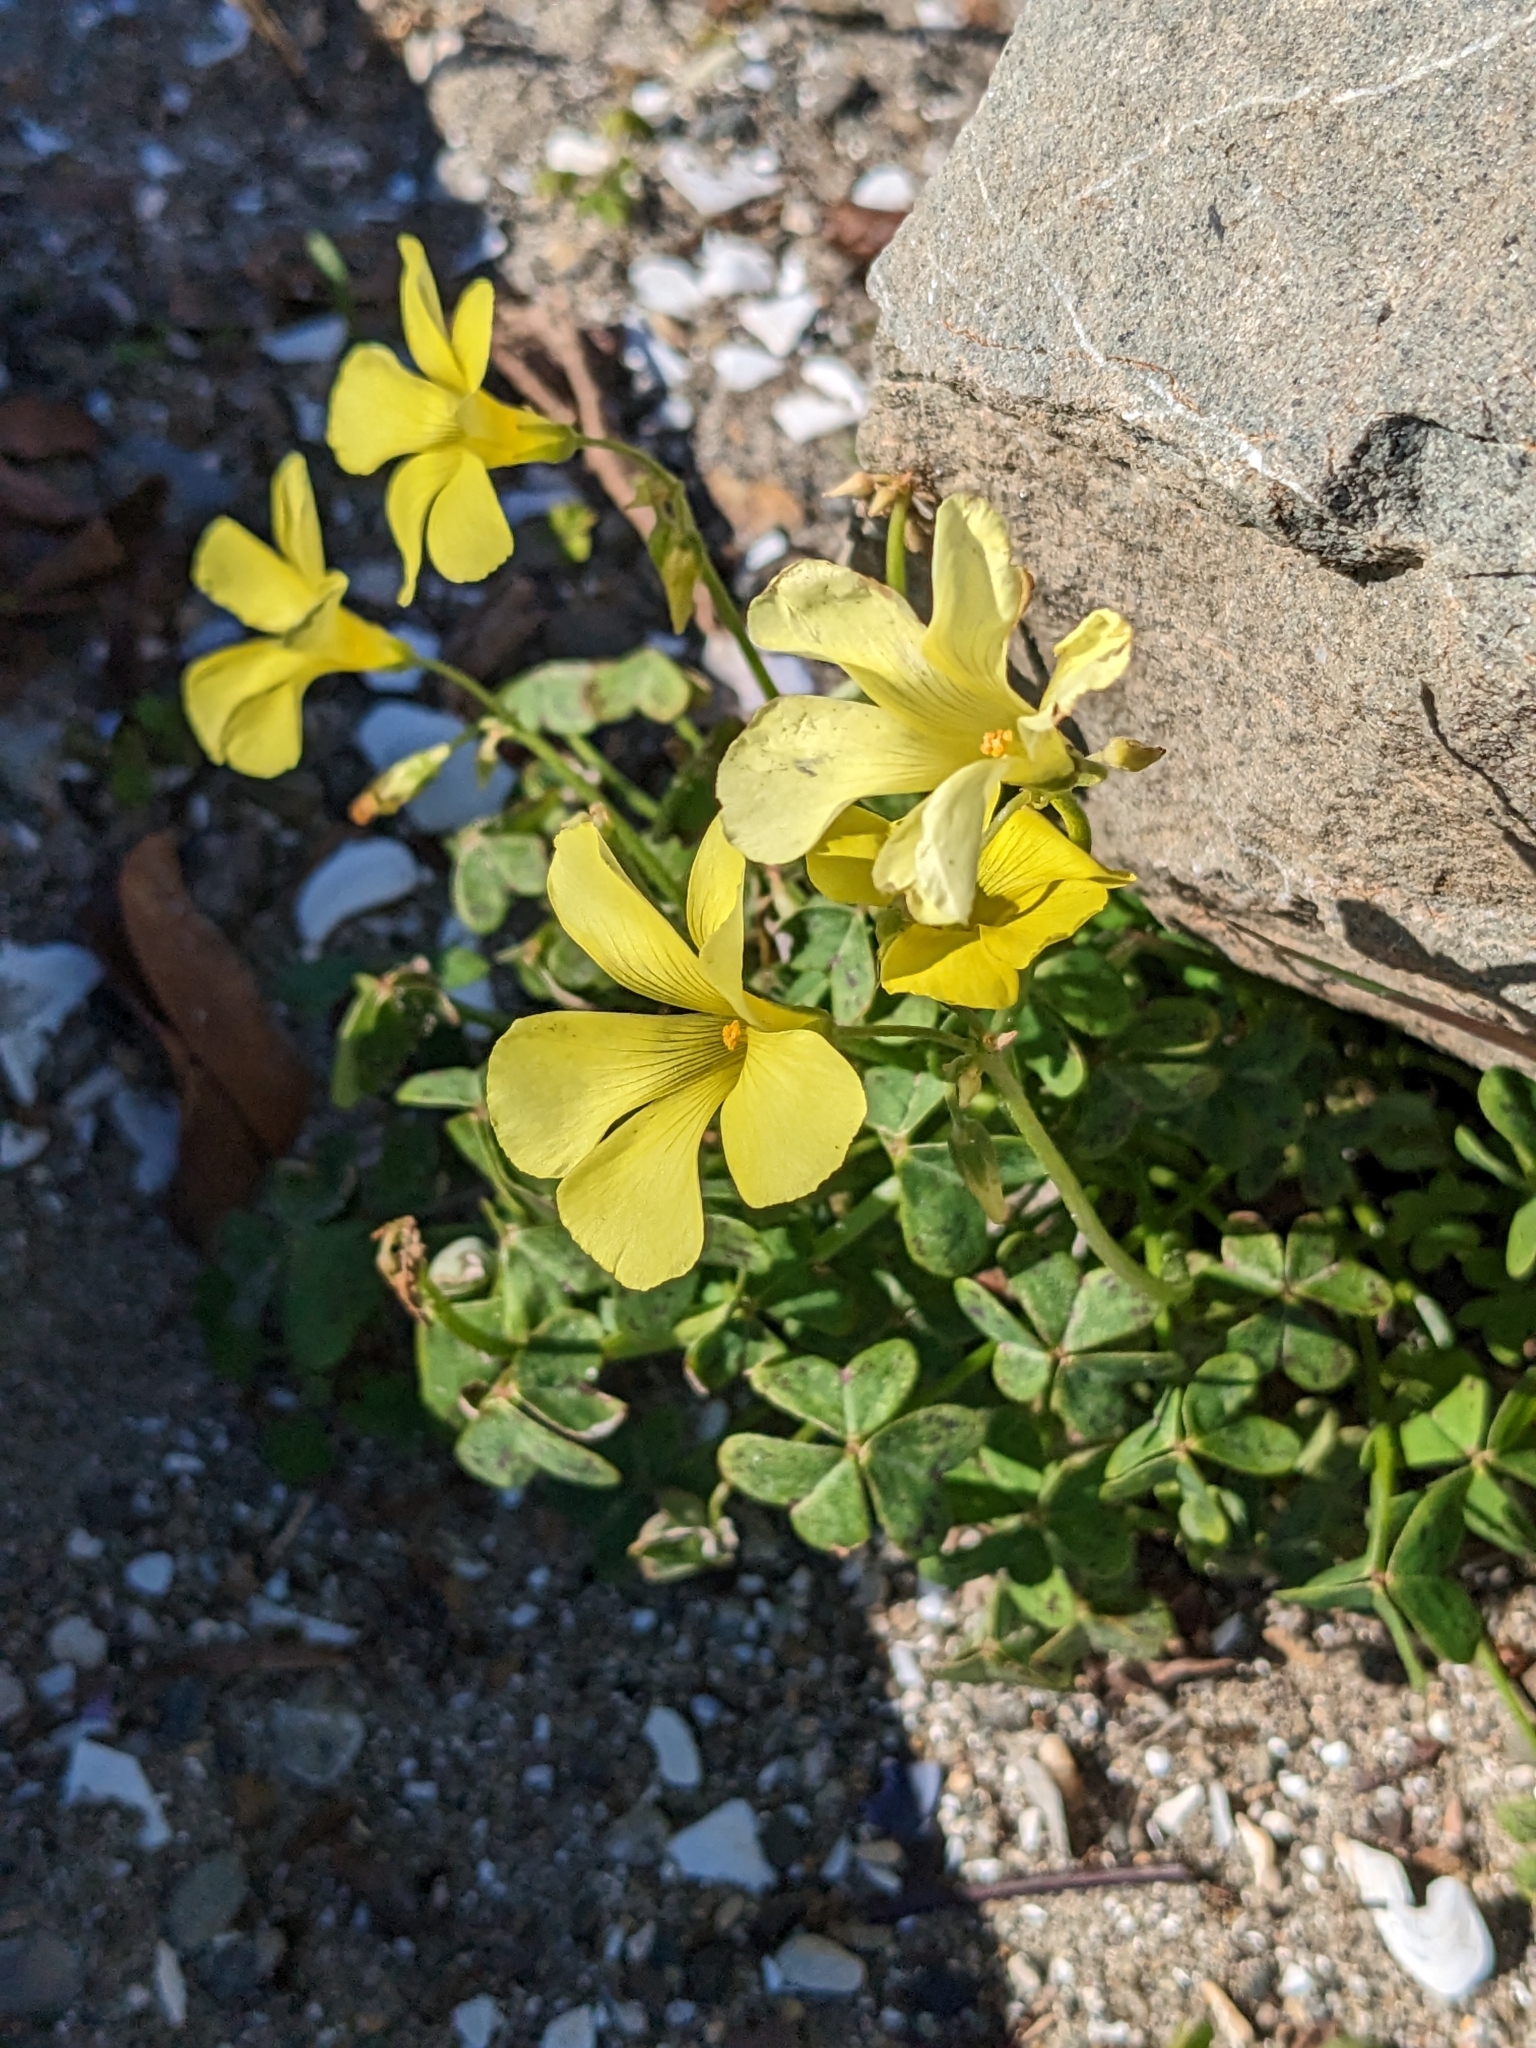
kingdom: Plantae
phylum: Tracheophyta
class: Magnoliopsida
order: Oxalidales
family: Oxalidaceae
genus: Oxalis
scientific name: Oxalis pes-caprae
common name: Bermuda-buttercup
